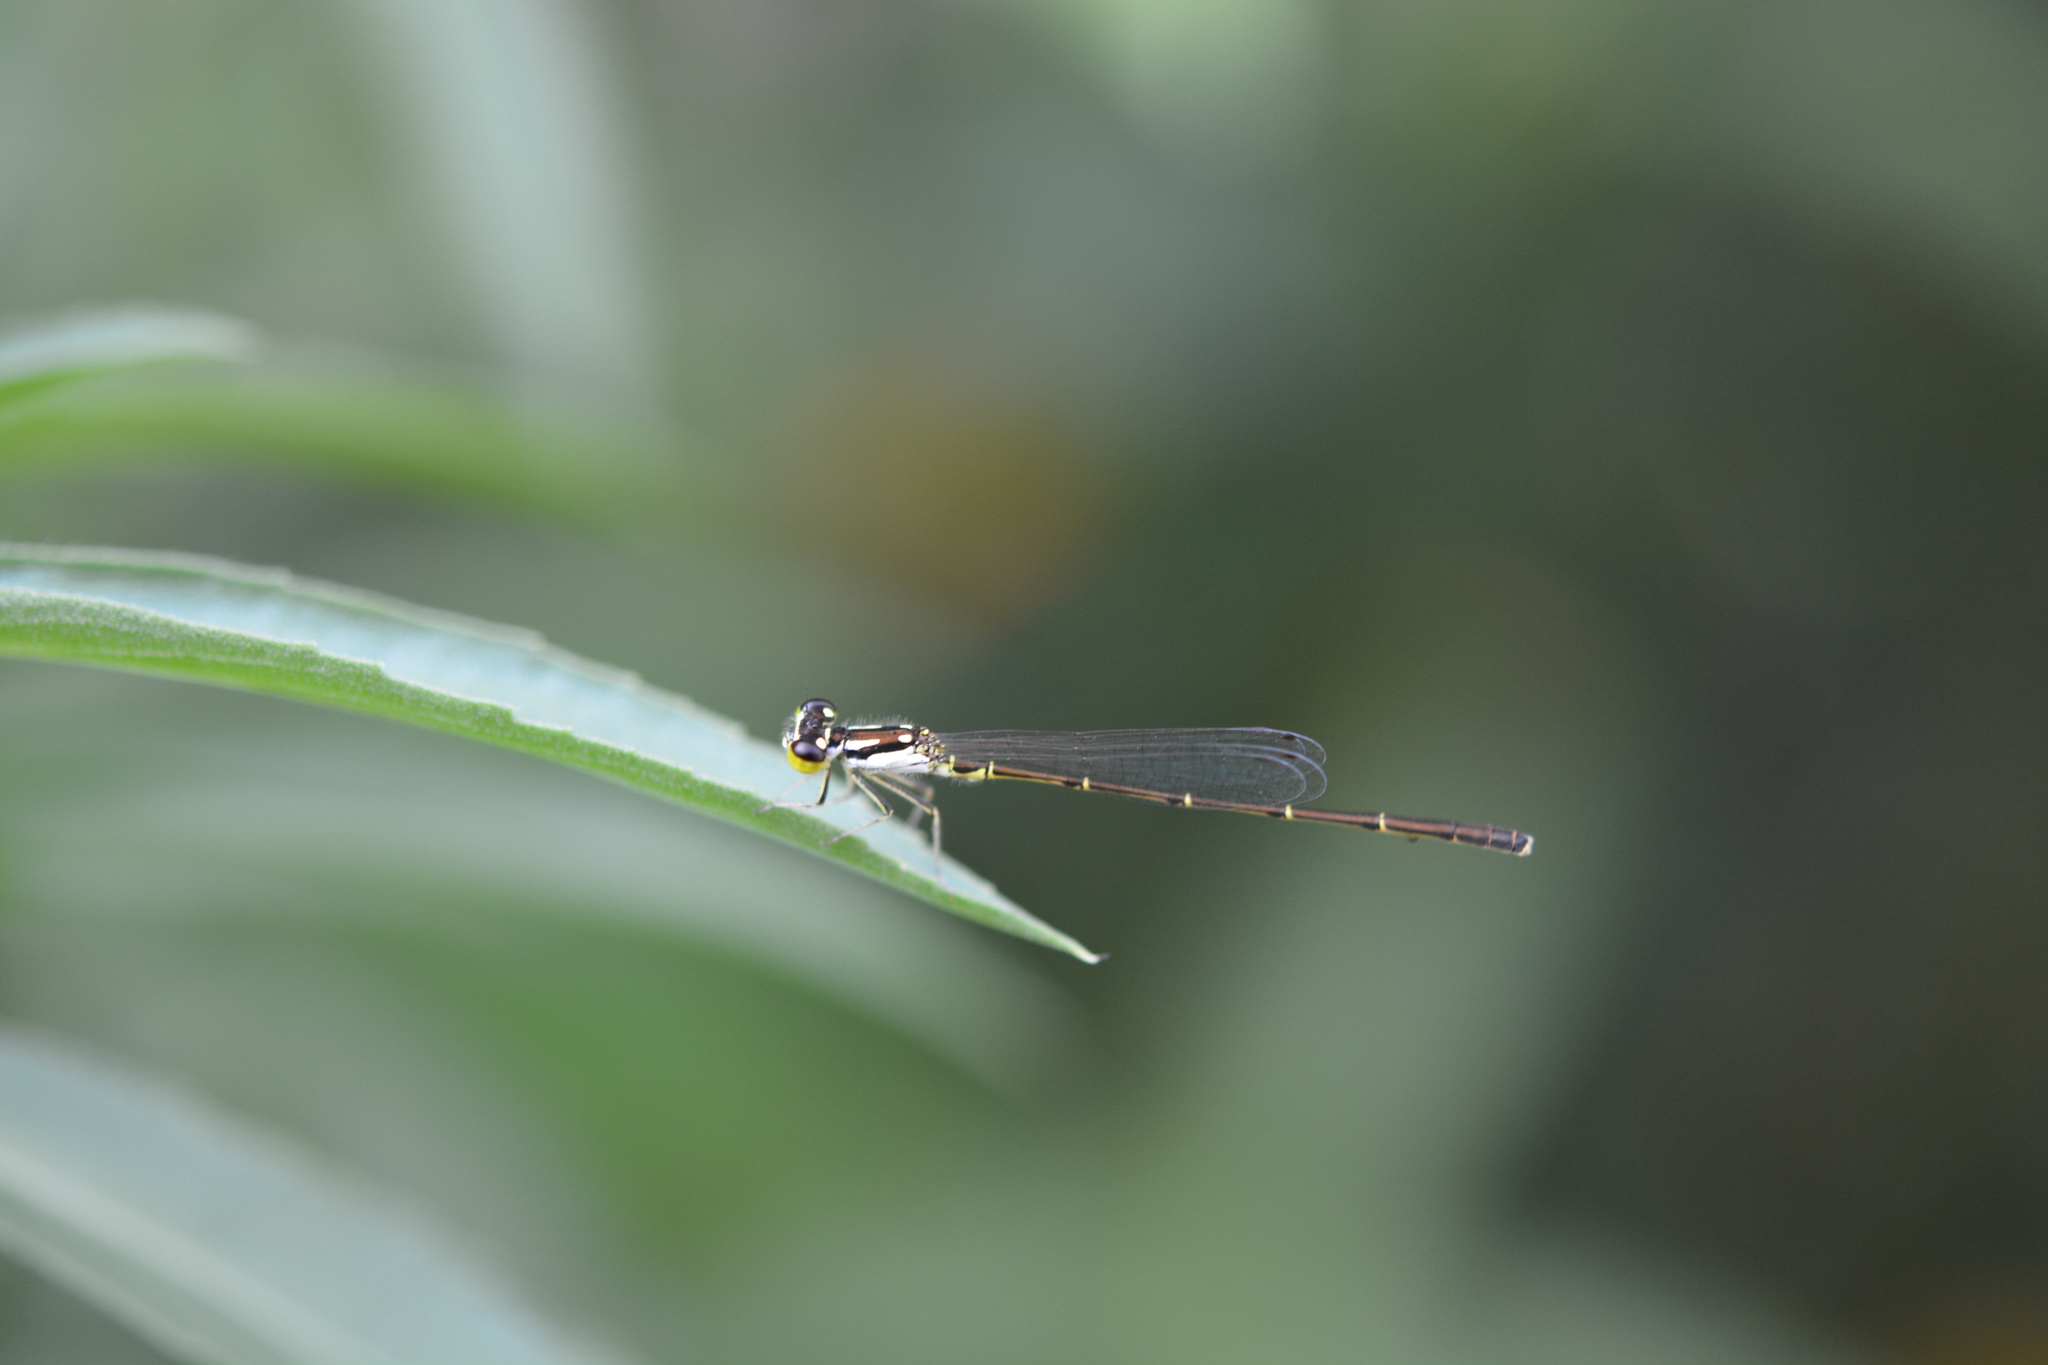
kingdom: Animalia
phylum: Arthropoda
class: Insecta
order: Odonata
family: Coenagrionidae
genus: Ischnura
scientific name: Ischnura posita
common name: Fragile forktail
